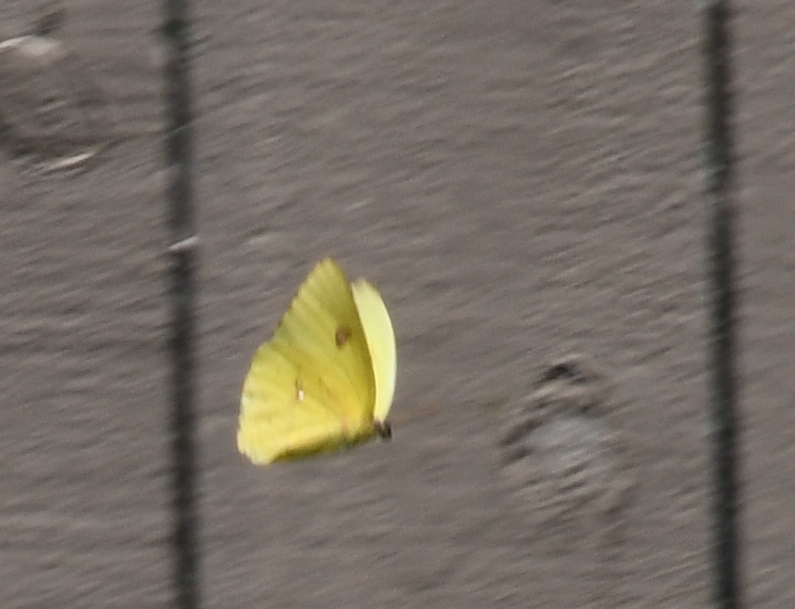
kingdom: Animalia
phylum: Arthropoda
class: Insecta
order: Lepidoptera
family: Pieridae
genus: Phoebis
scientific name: Phoebis sennae
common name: Cloudless sulphur
